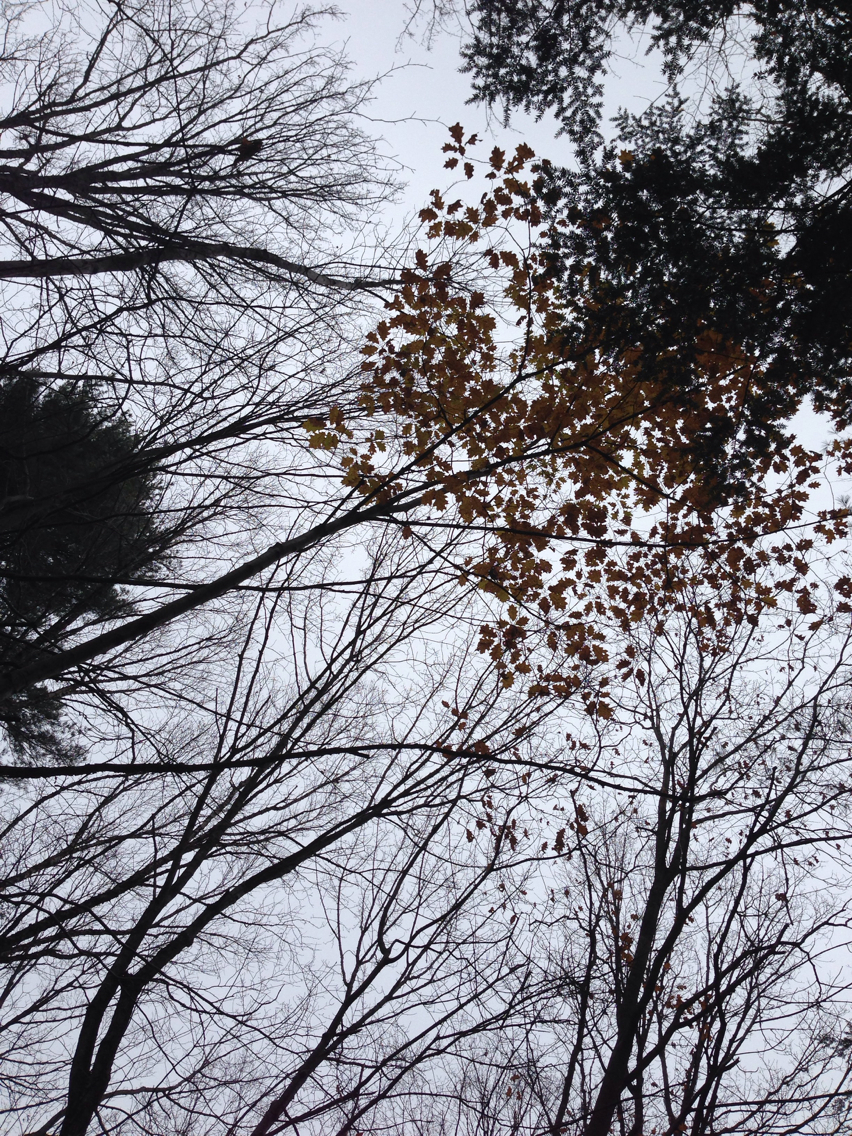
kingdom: Plantae
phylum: Tracheophyta
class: Magnoliopsida
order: Fagales
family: Fagaceae
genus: Quercus
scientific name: Quercus rubra
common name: Red oak
